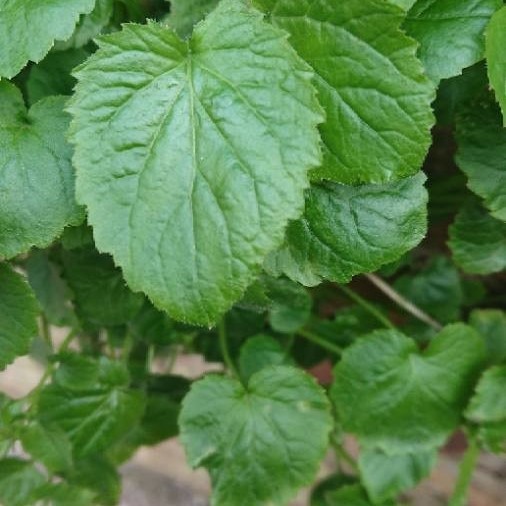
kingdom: Plantae
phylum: Tracheophyta
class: Magnoliopsida
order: Asterales
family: Campanulaceae
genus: Campanula
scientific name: Campanula poscharskyana
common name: Trailing bellflower
